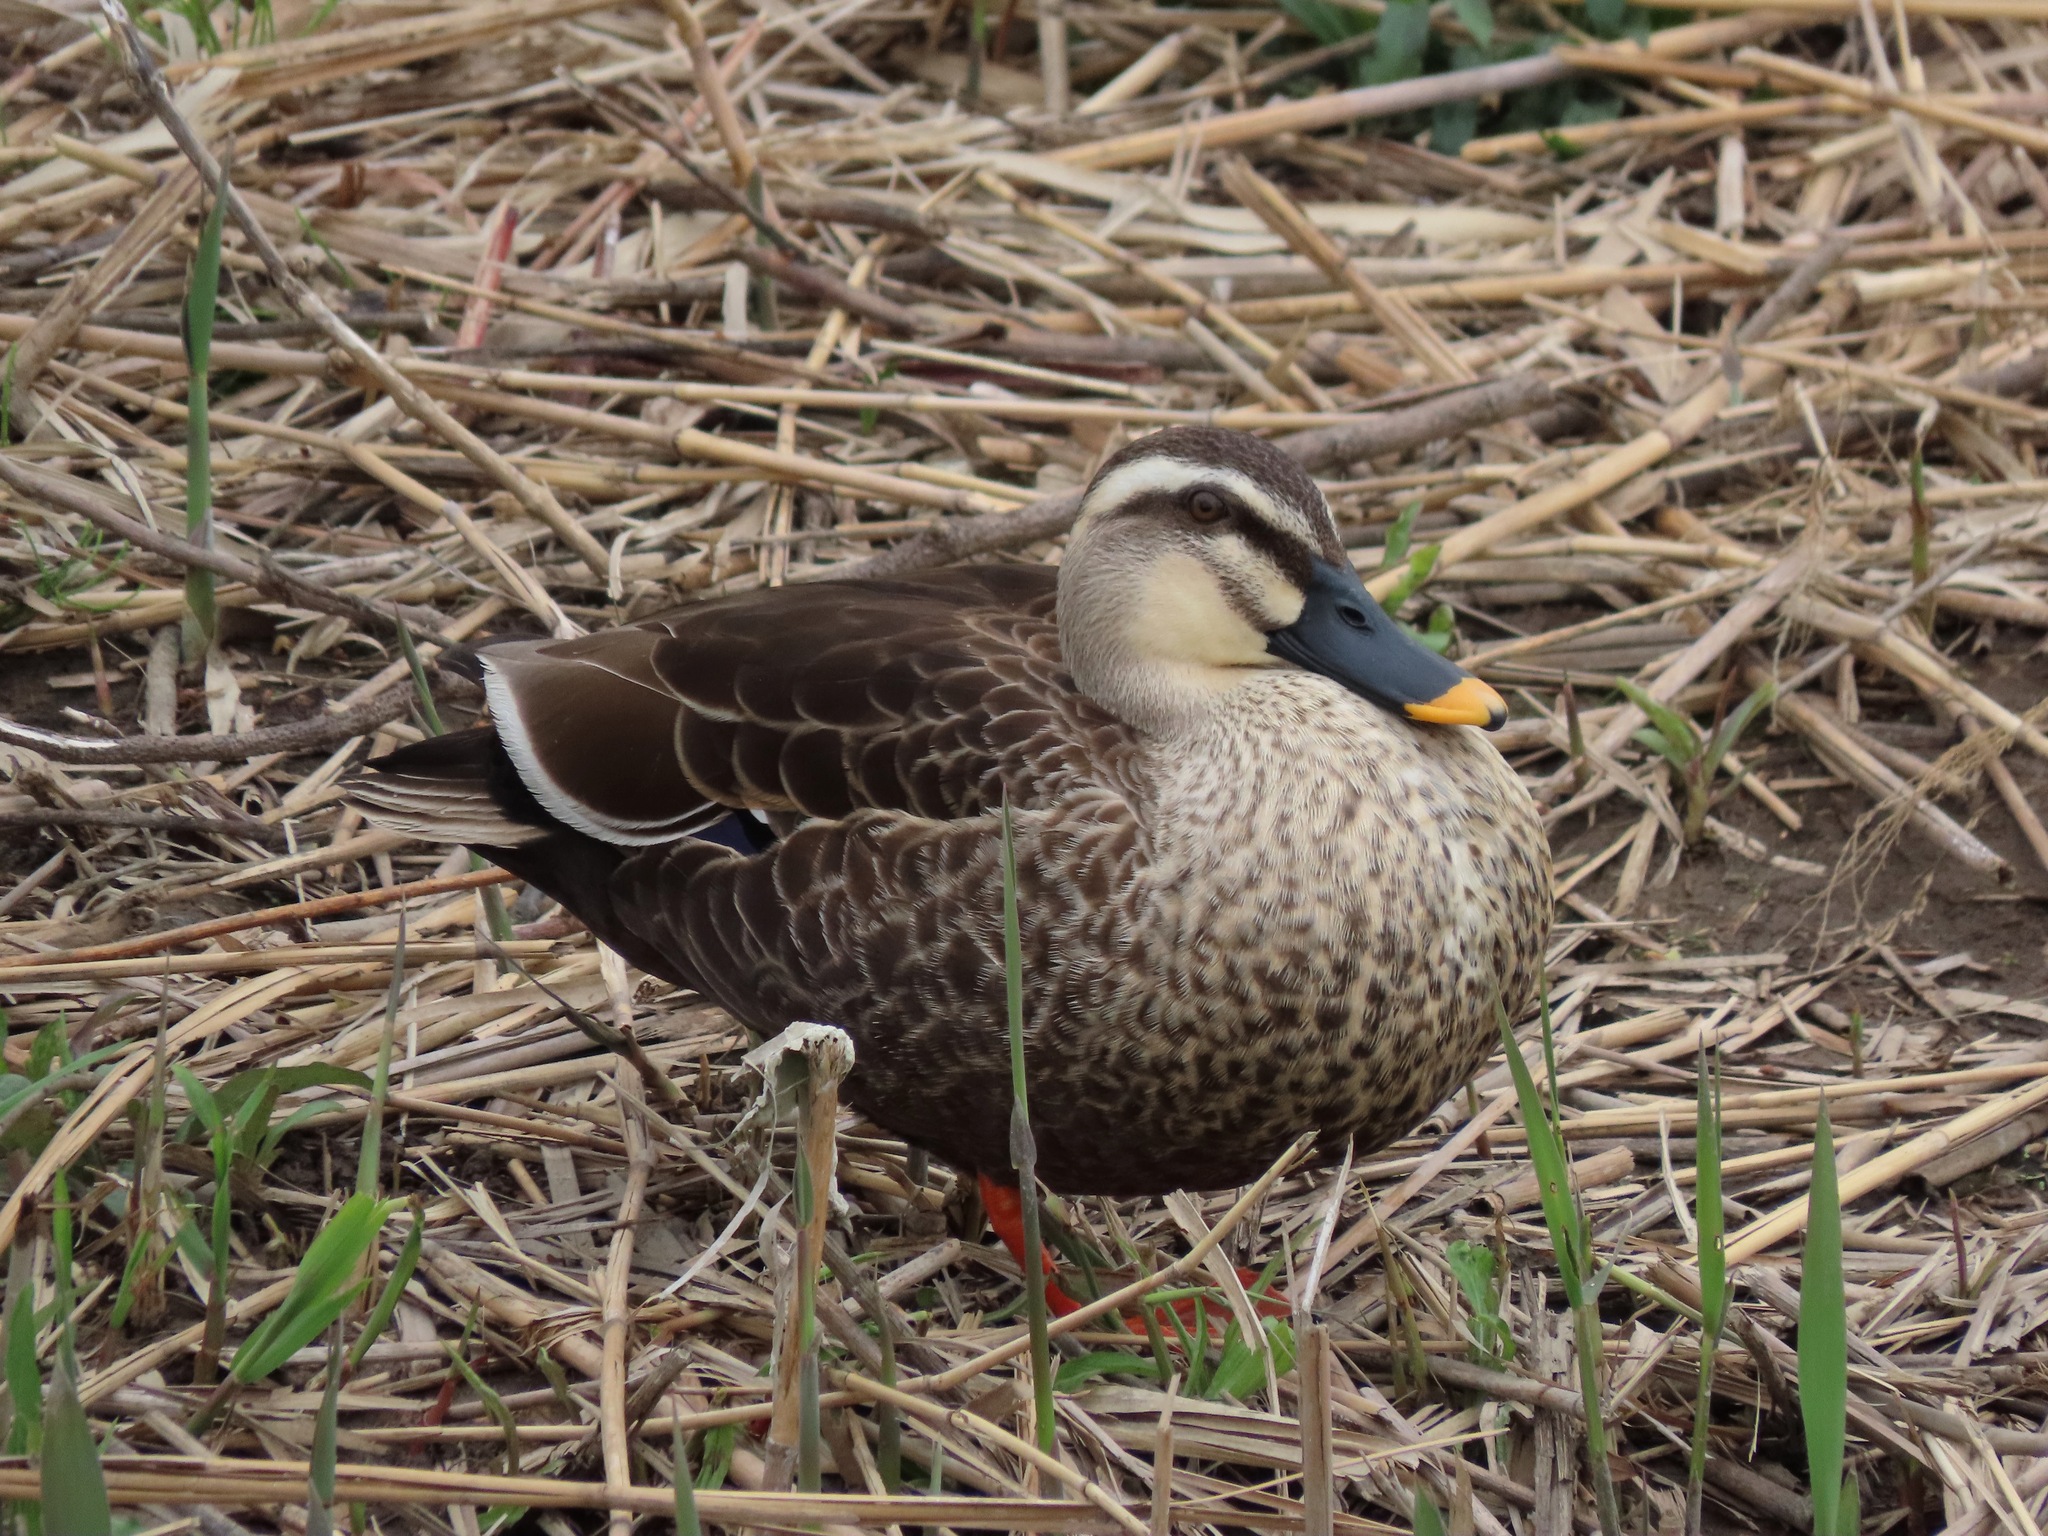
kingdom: Animalia
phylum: Chordata
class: Aves
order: Anseriformes
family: Anatidae
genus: Anas
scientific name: Anas zonorhyncha
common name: Eastern spot-billed duck
